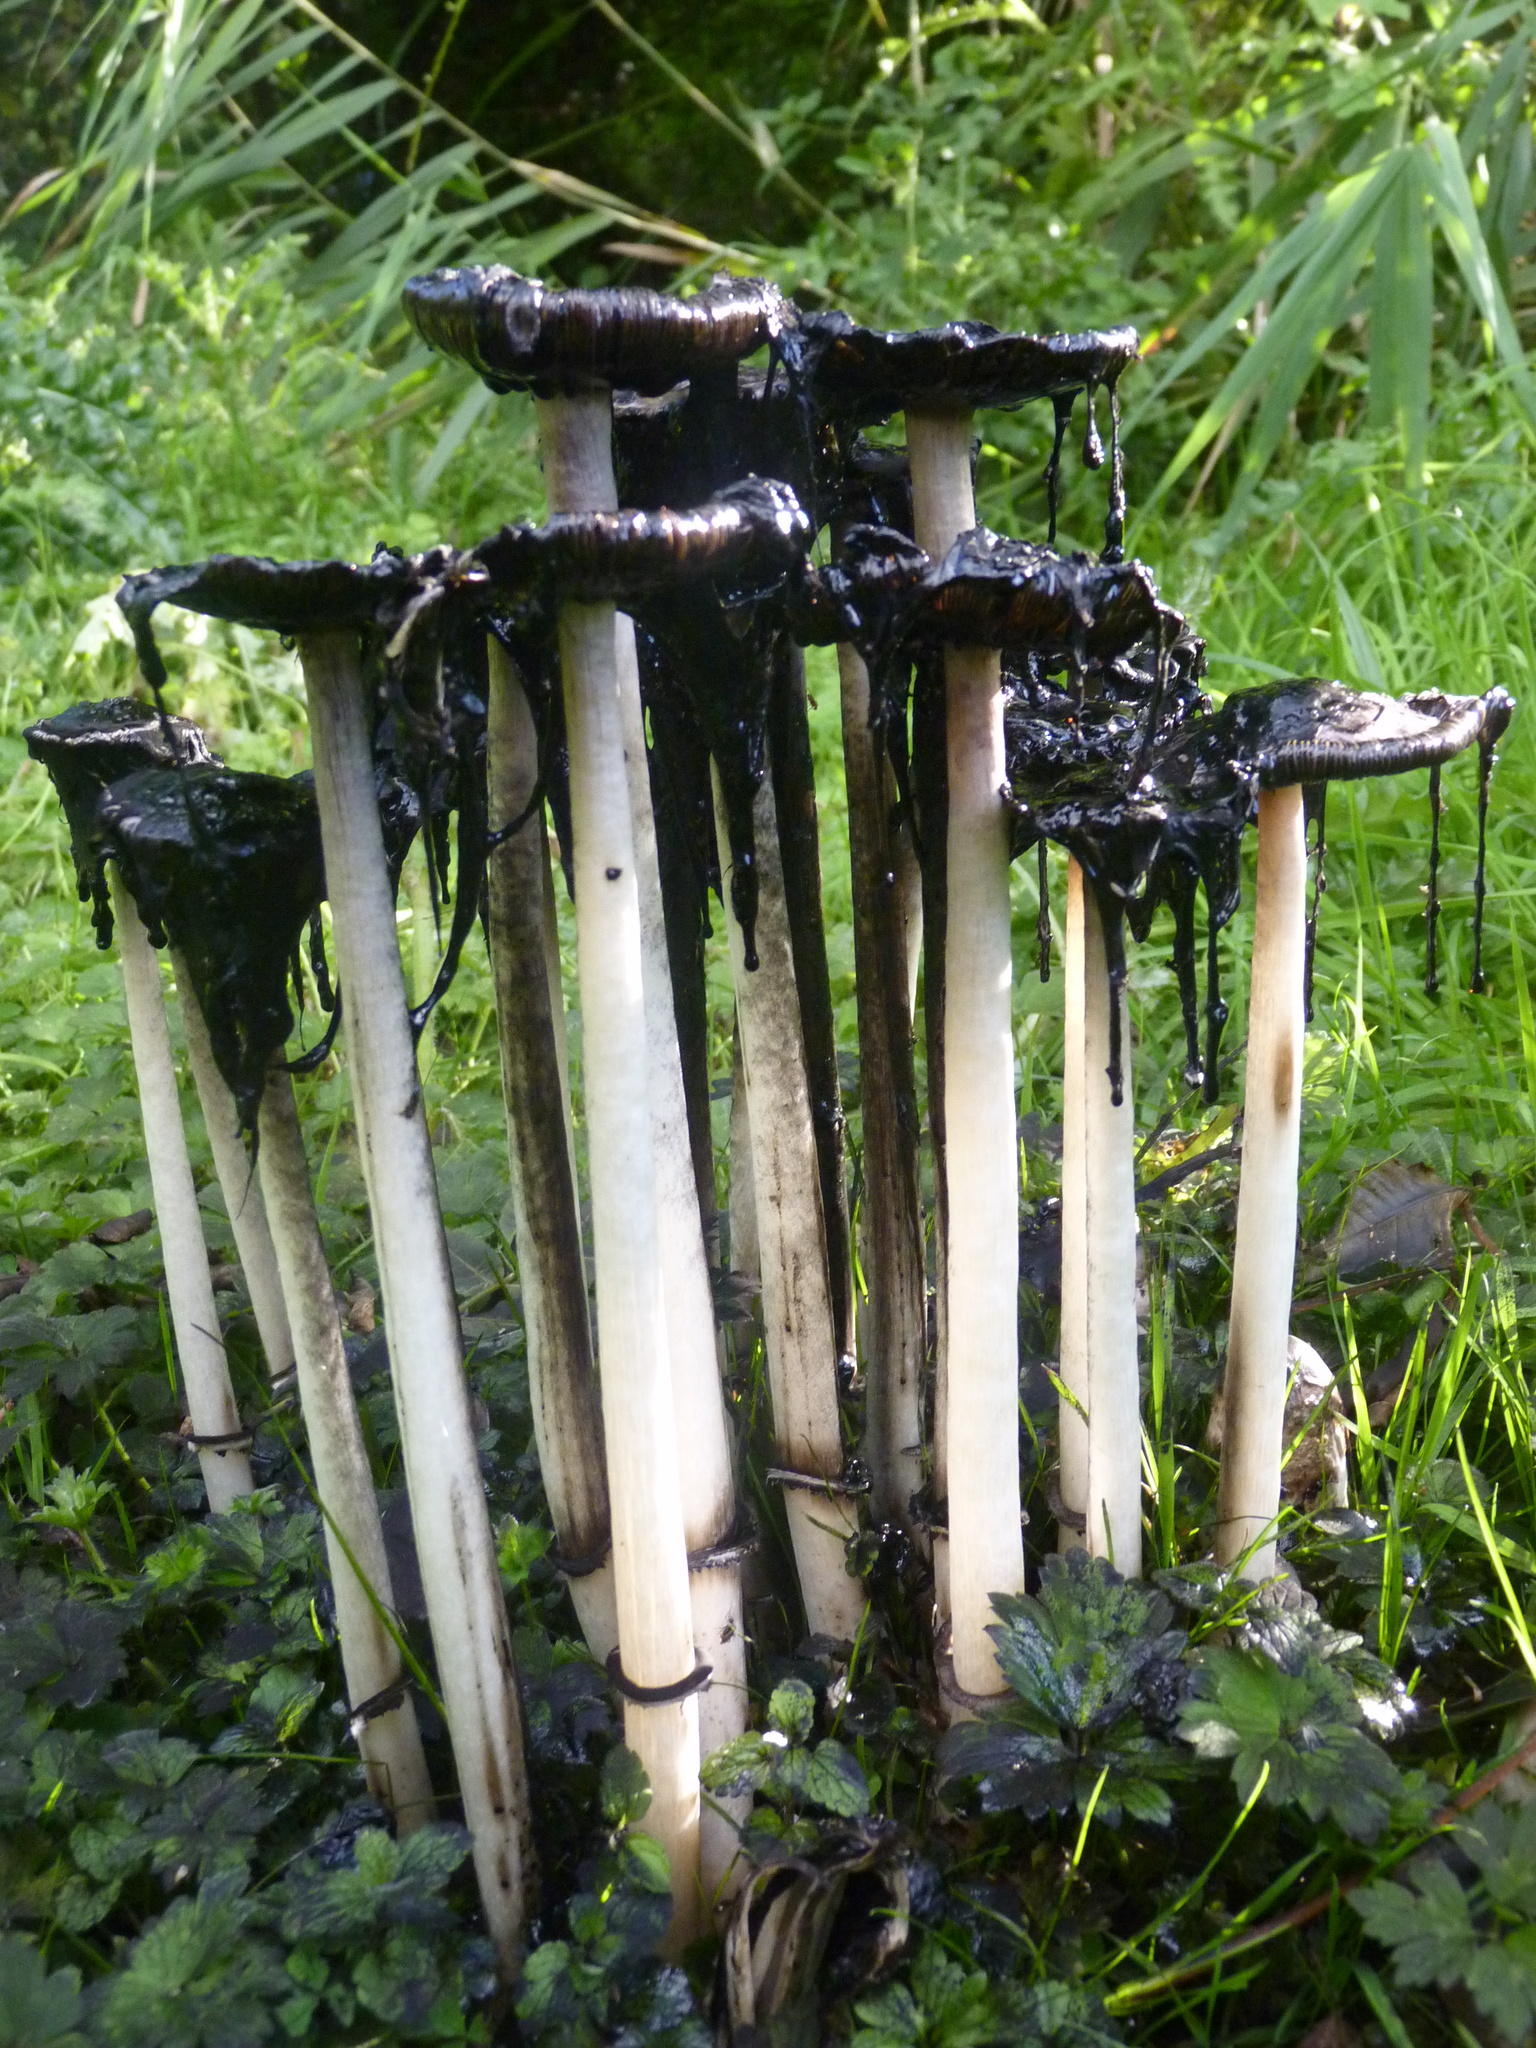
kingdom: Fungi
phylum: Basidiomycota
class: Agaricomycetes
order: Agaricales
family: Agaricaceae
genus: Coprinus
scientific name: Coprinus comatus
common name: Lawyer's wig
